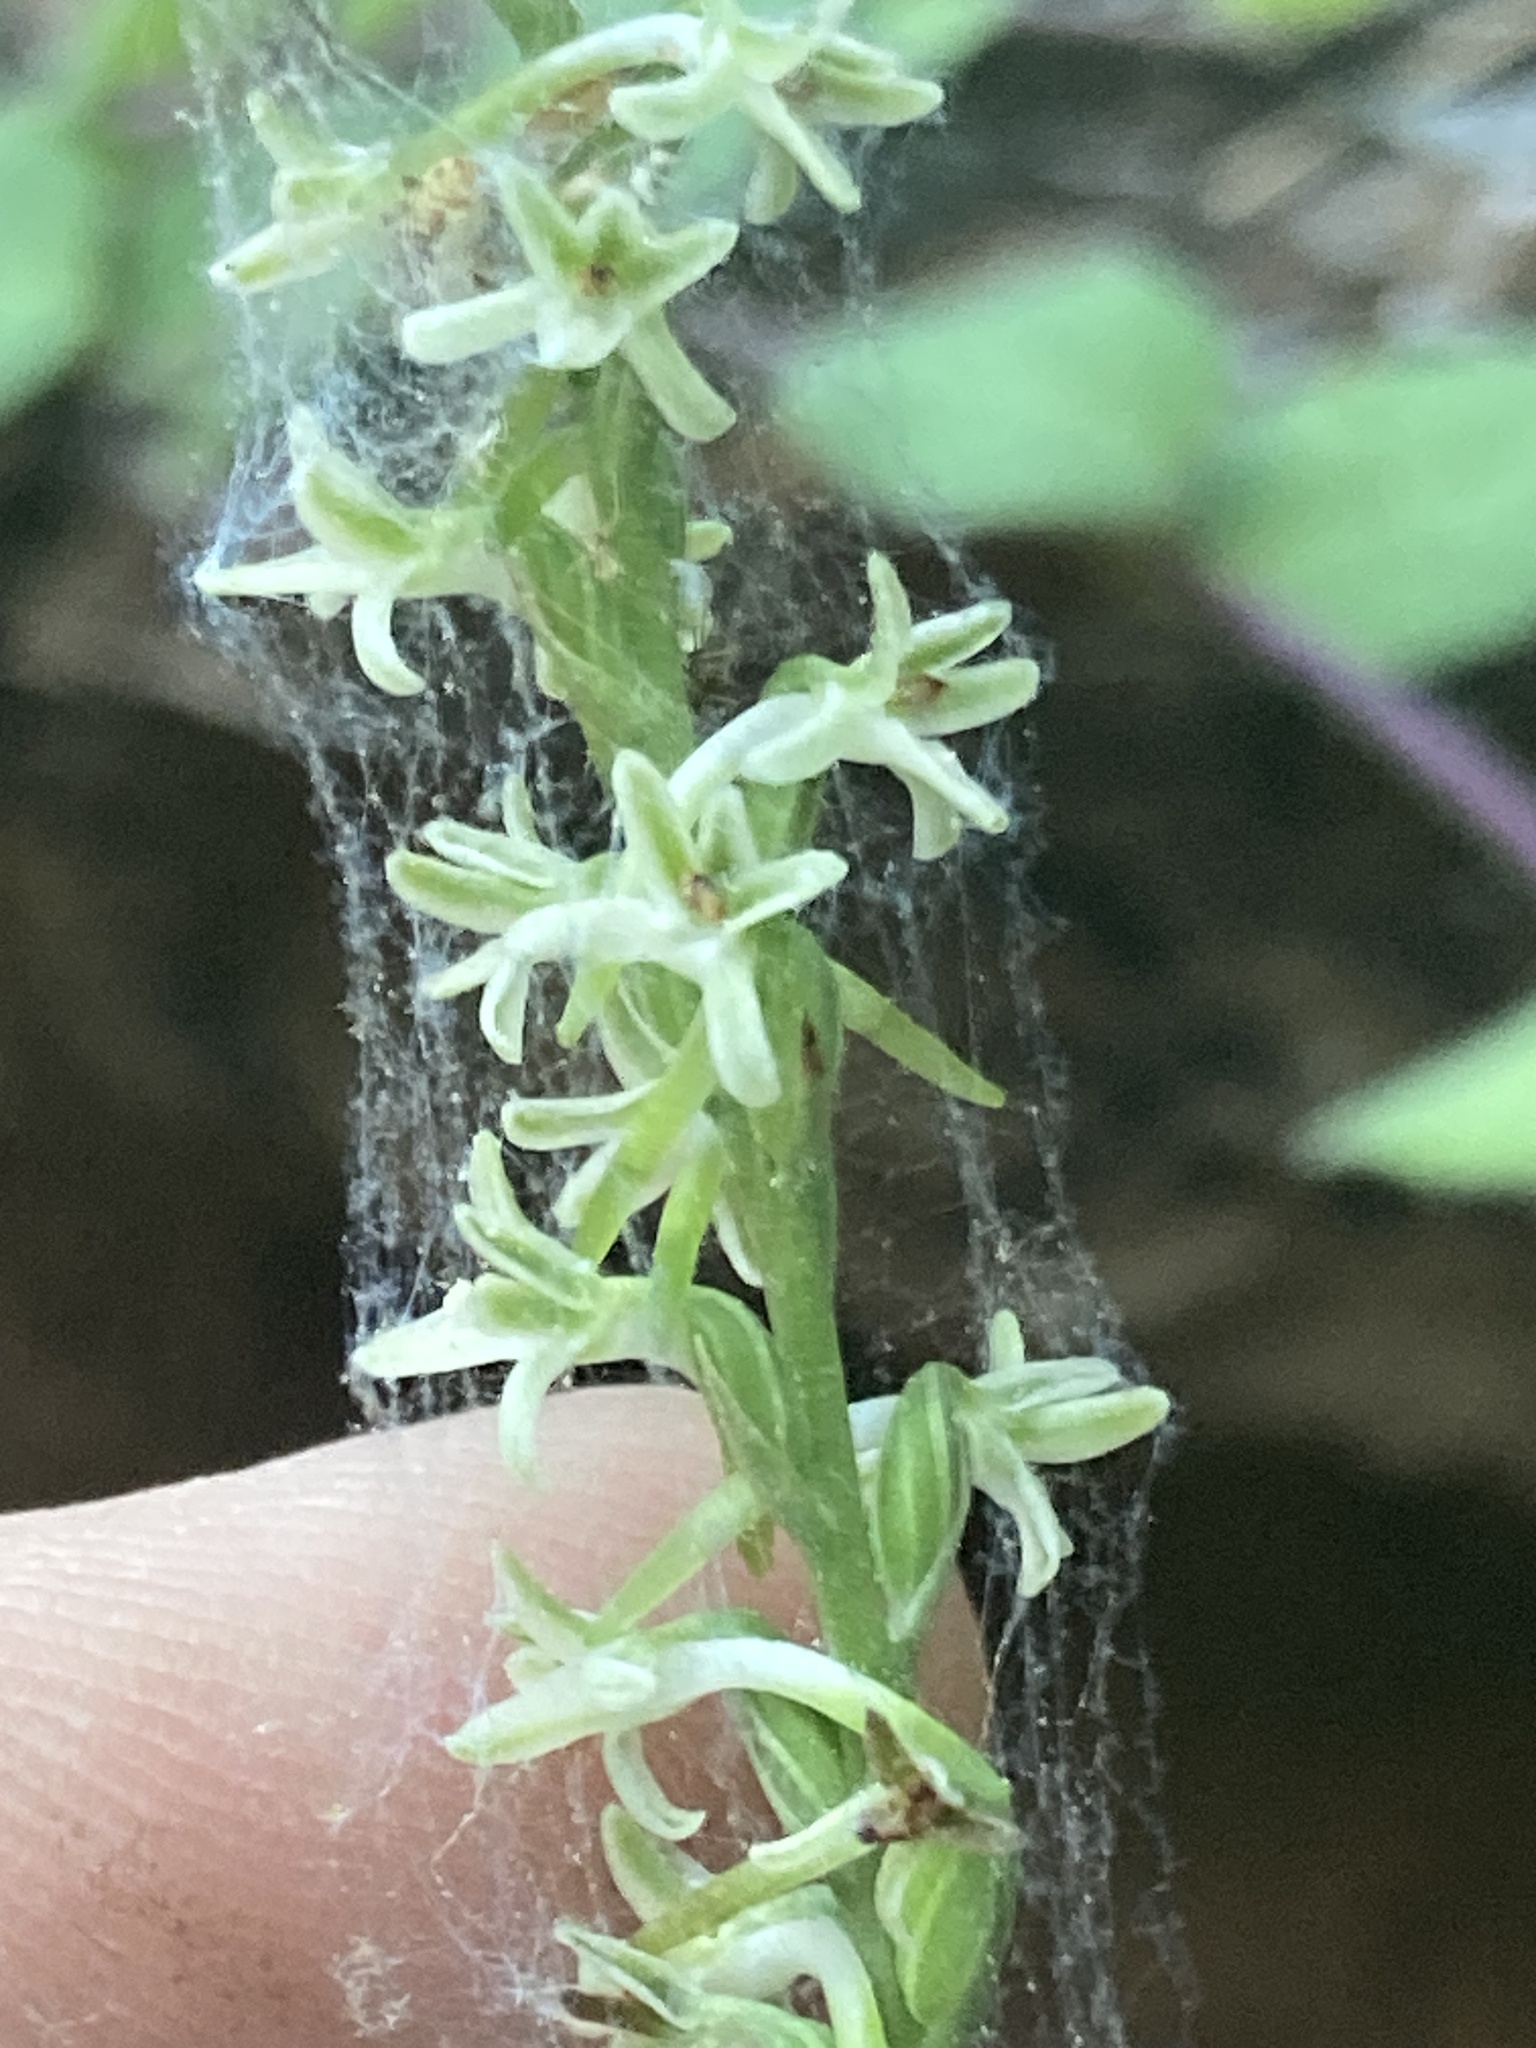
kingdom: Plantae
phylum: Tracheophyta
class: Liliopsida
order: Asparagales
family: Orchidaceae
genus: Platanthera
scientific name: Platanthera transversa
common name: Royal rein orchid
